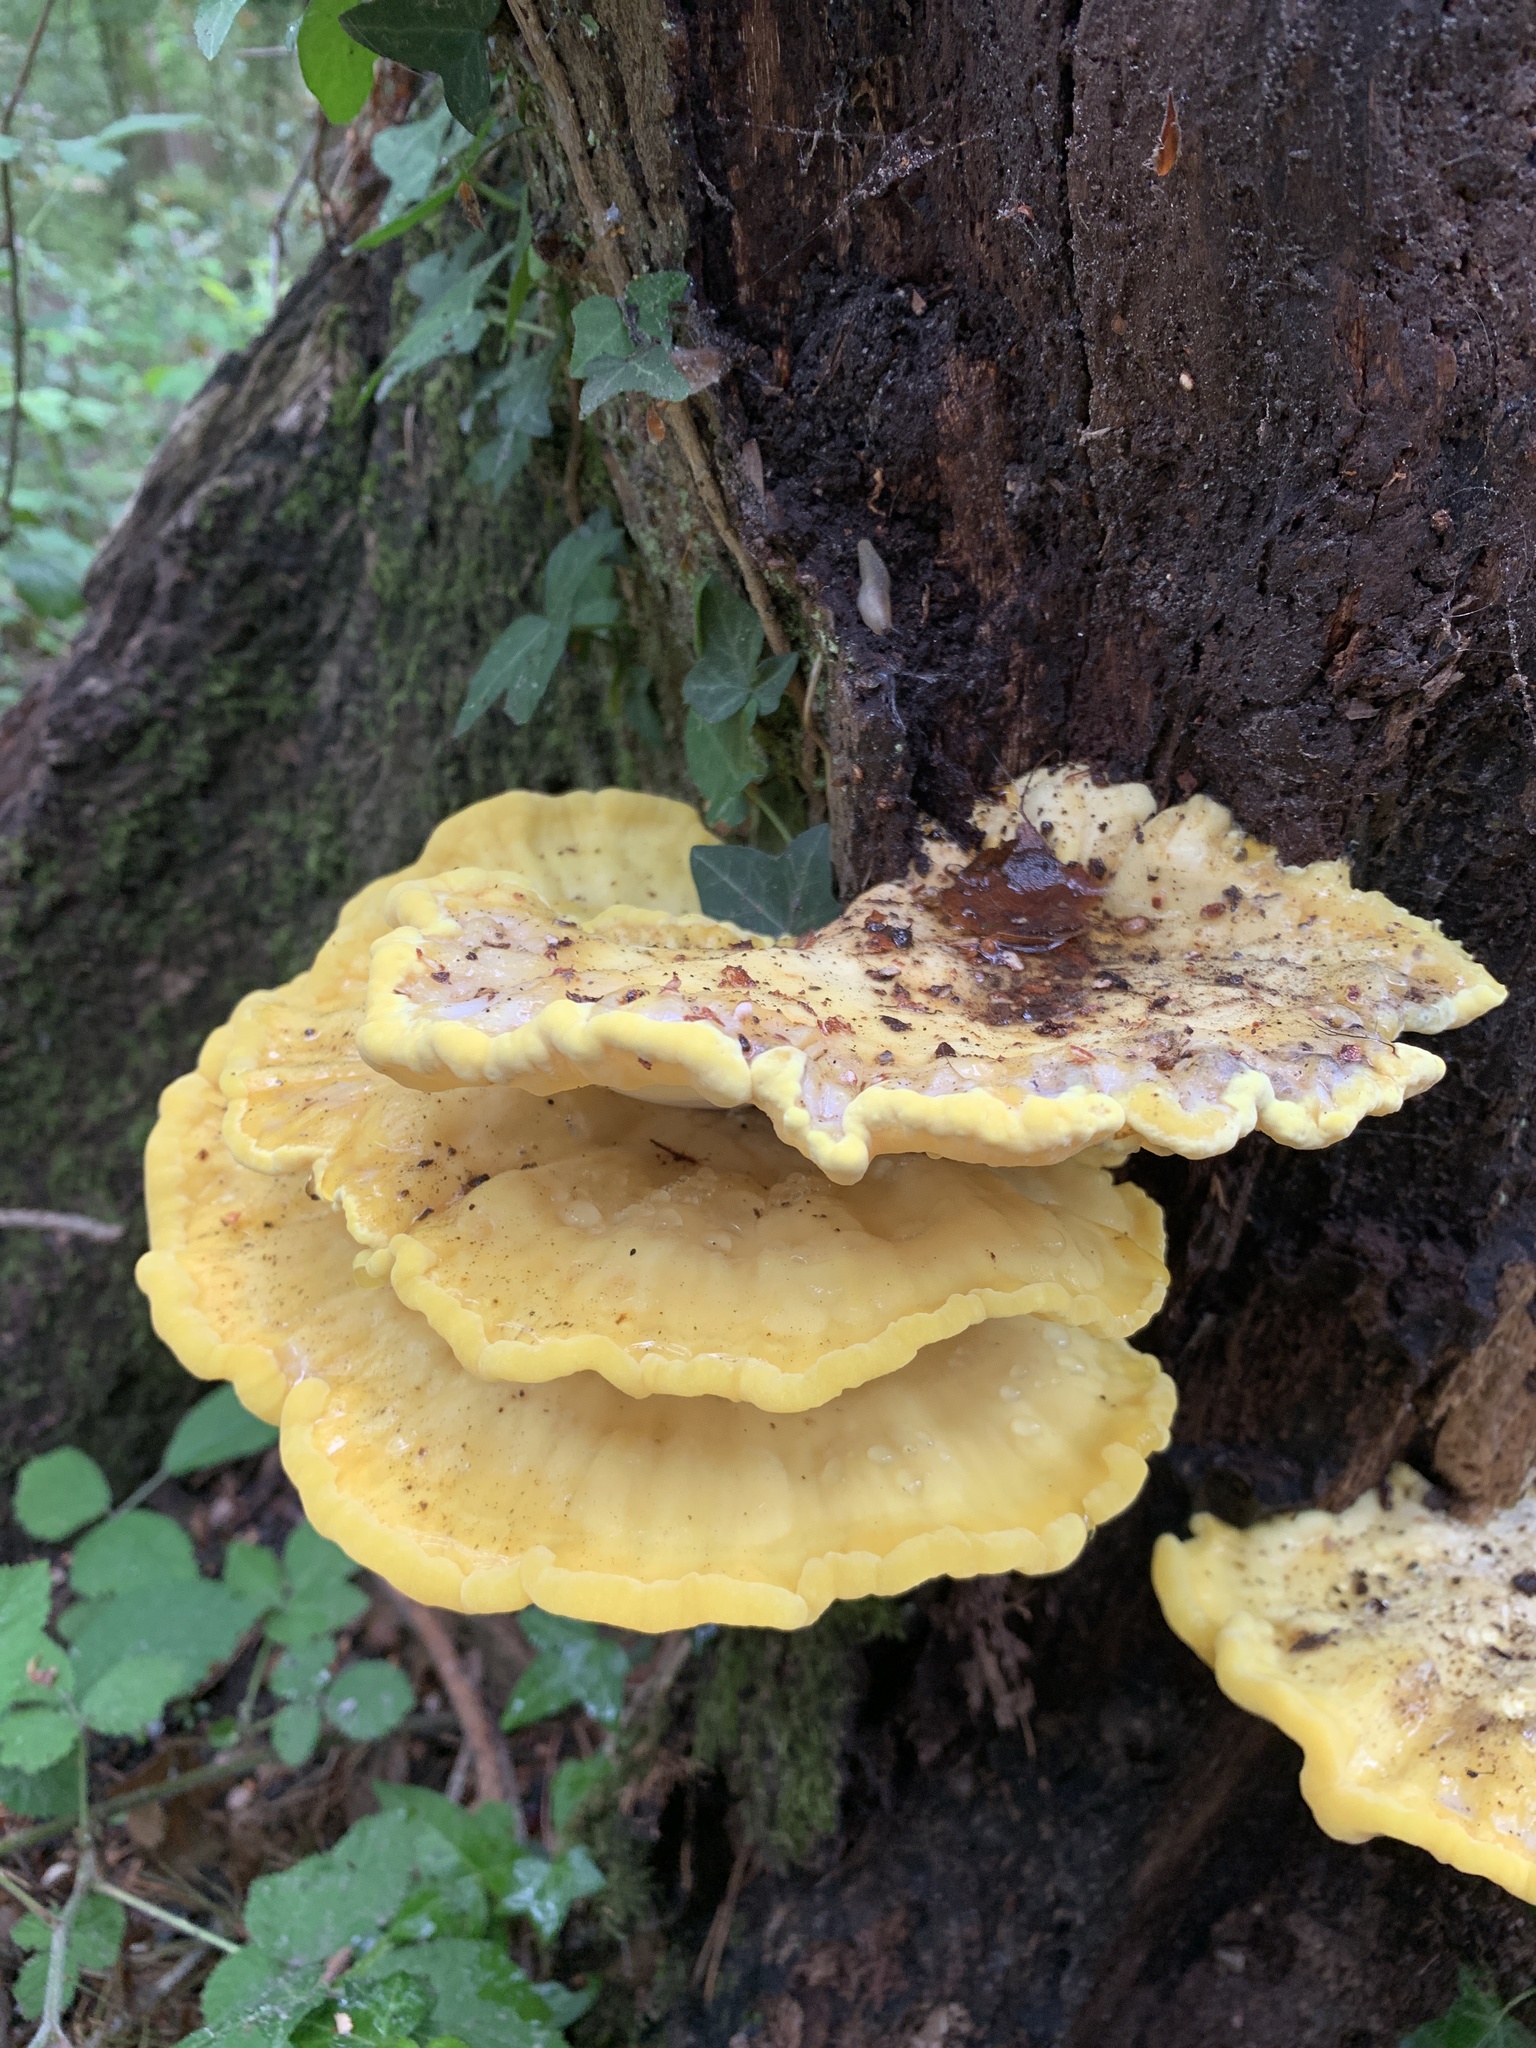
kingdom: Fungi
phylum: Basidiomycota
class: Agaricomycetes
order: Polyporales
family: Laetiporaceae
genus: Laetiporus
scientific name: Laetiporus sulphureus
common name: Chicken of the woods
